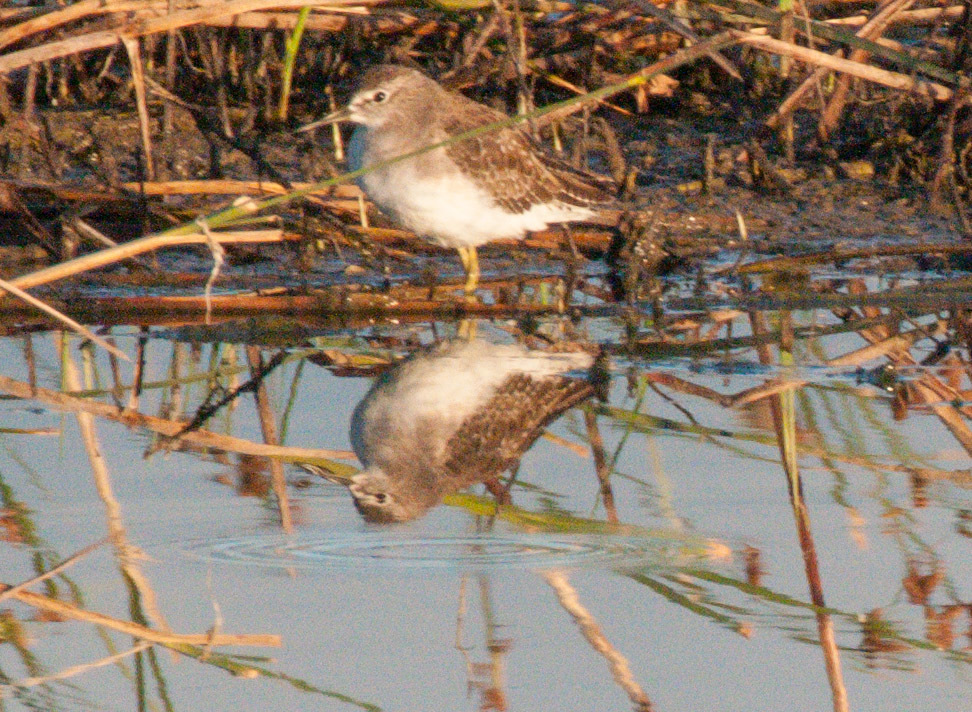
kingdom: Animalia
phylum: Chordata
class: Aves
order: Charadriiformes
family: Scolopacidae
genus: Tringa
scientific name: Tringa glareola
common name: Wood sandpiper
